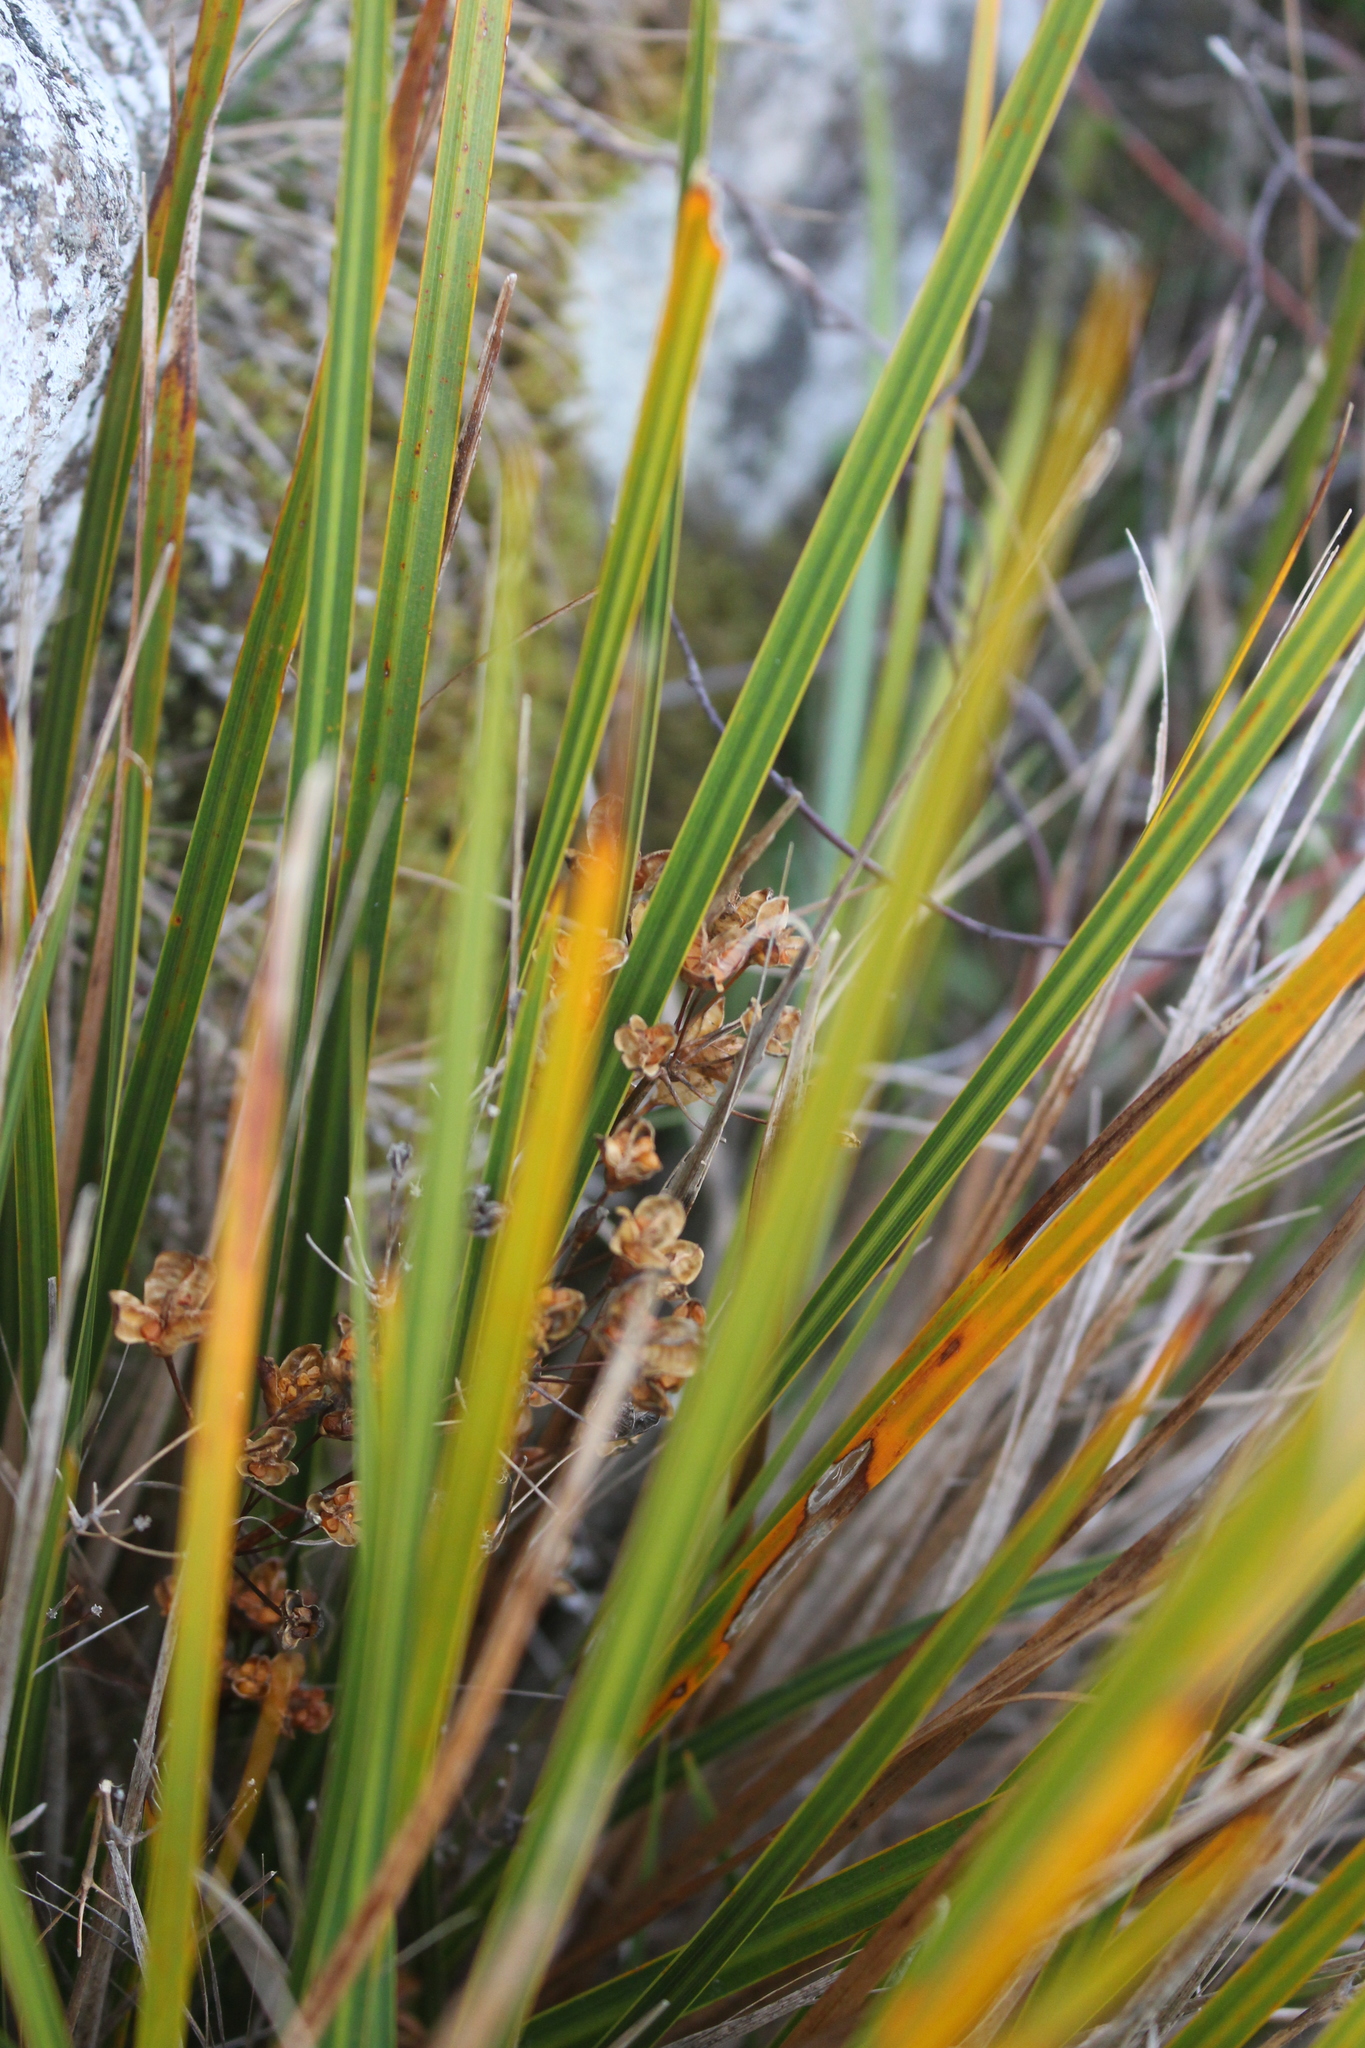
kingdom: Plantae
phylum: Tracheophyta
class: Liliopsida
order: Asparagales
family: Iridaceae
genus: Libertia
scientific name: Libertia ixioides
